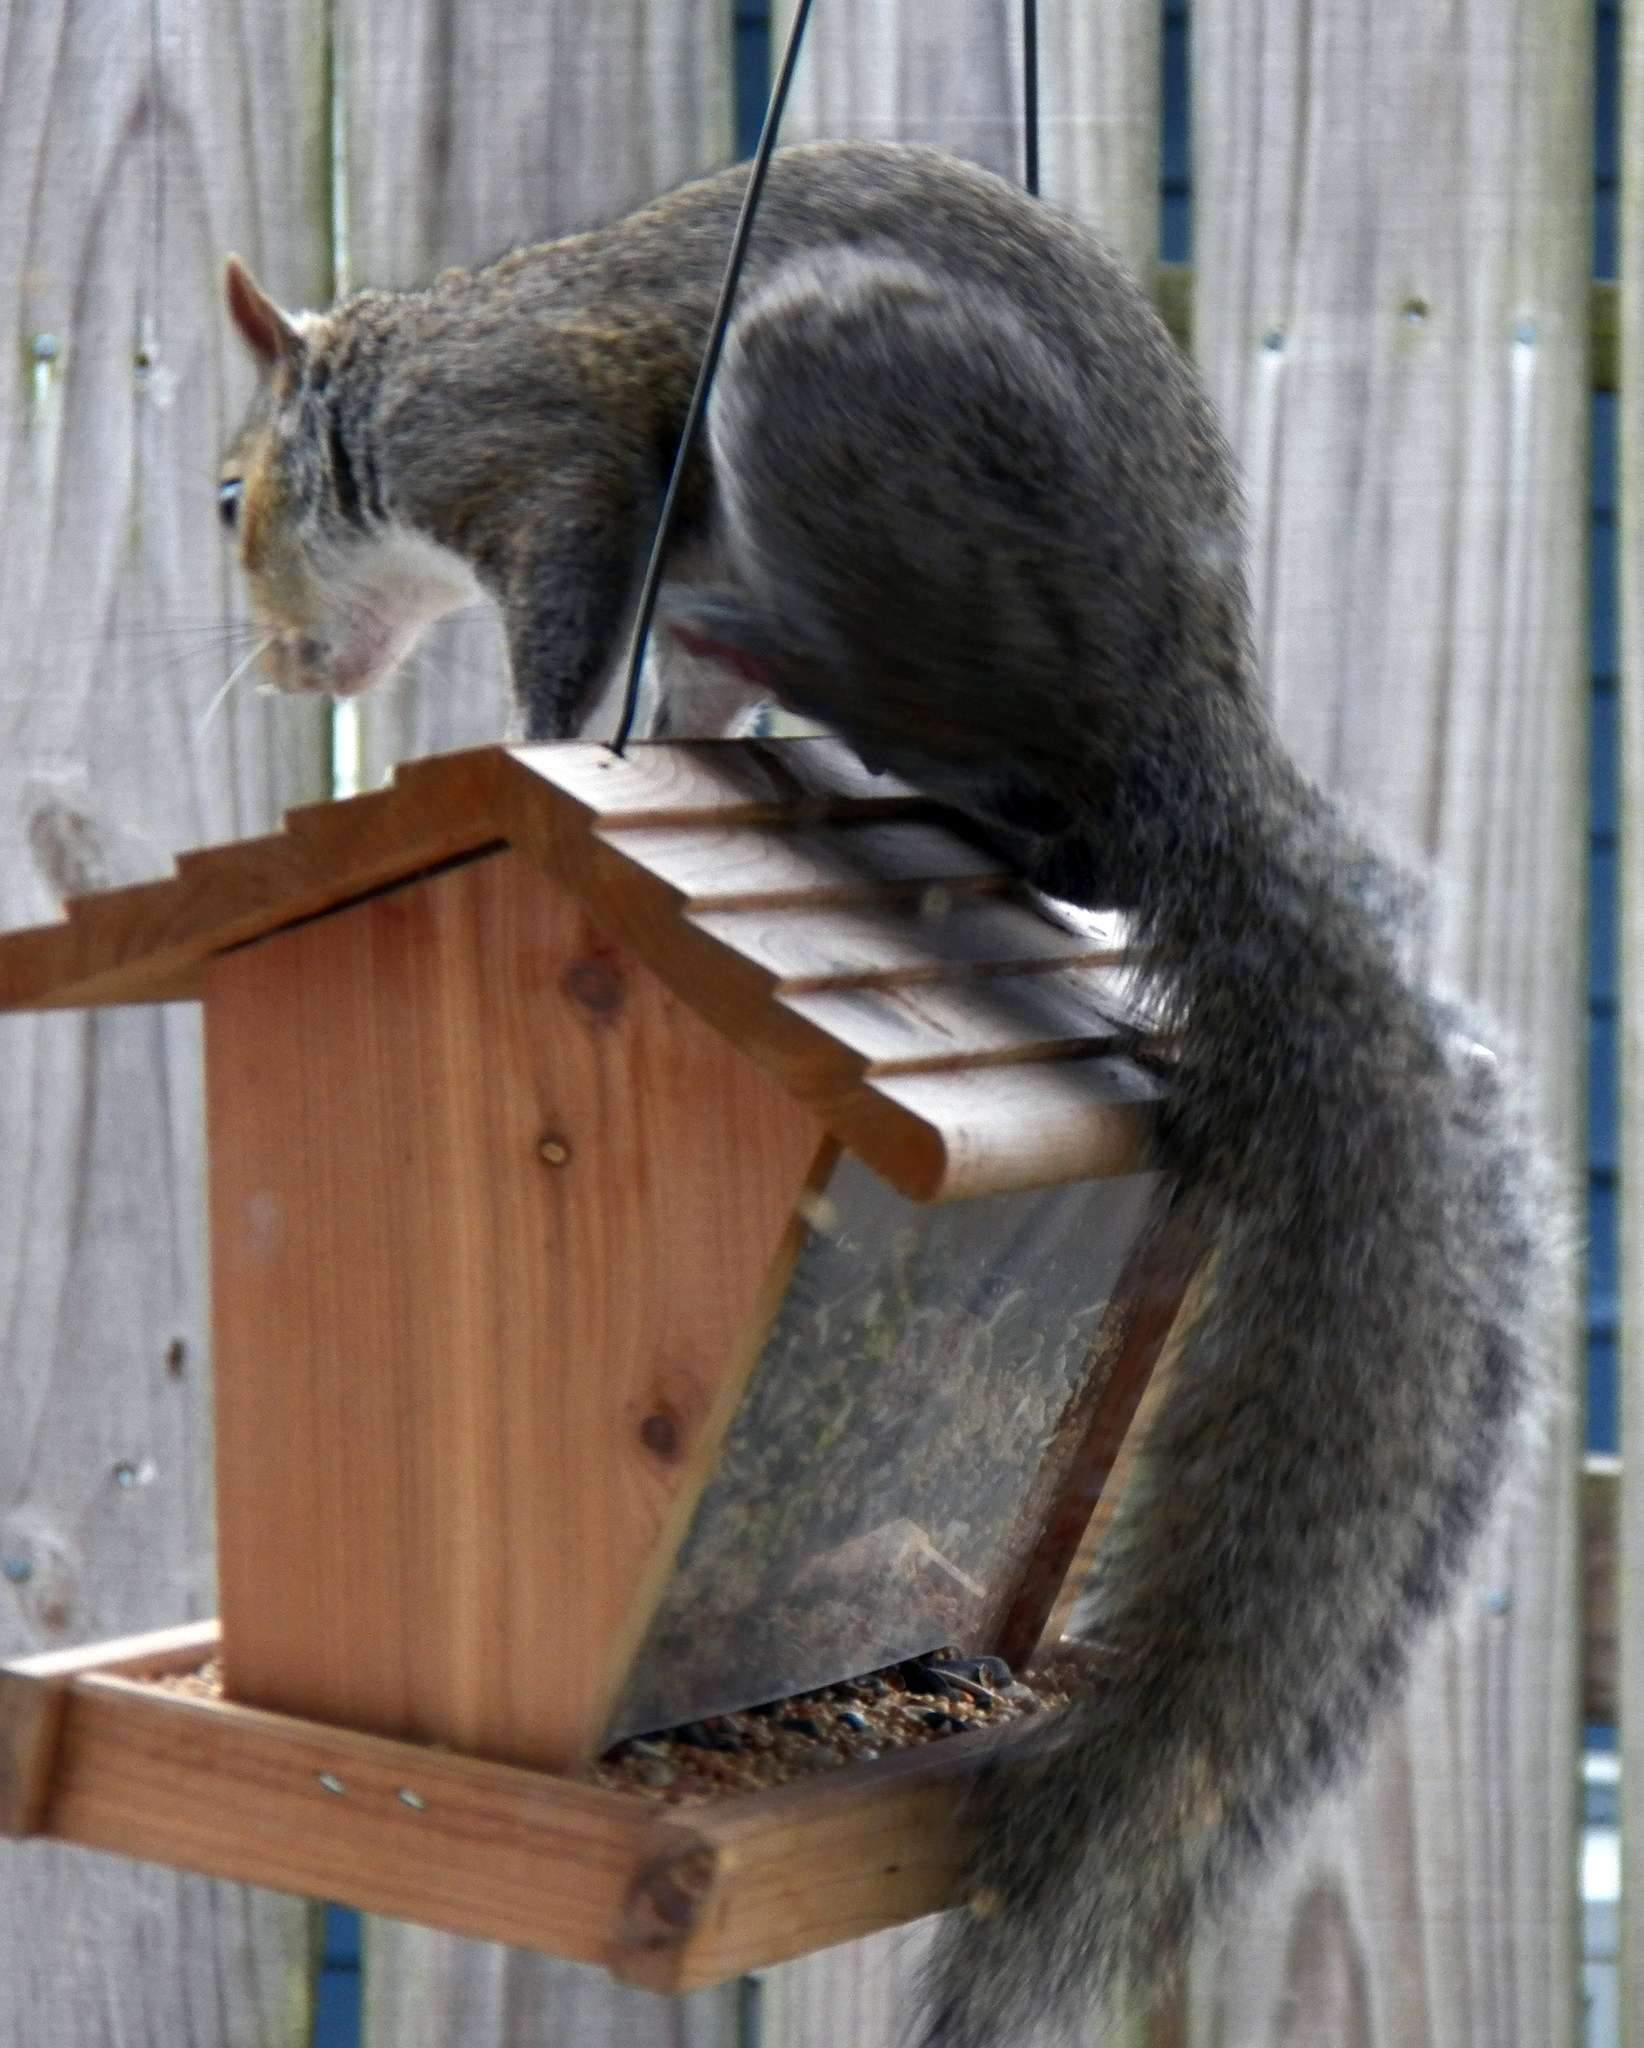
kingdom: Animalia
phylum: Chordata
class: Mammalia
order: Rodentia
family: Sciuridae
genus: Sciurus
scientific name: Sciurus carolinensis
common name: Eastern gray squirrel
